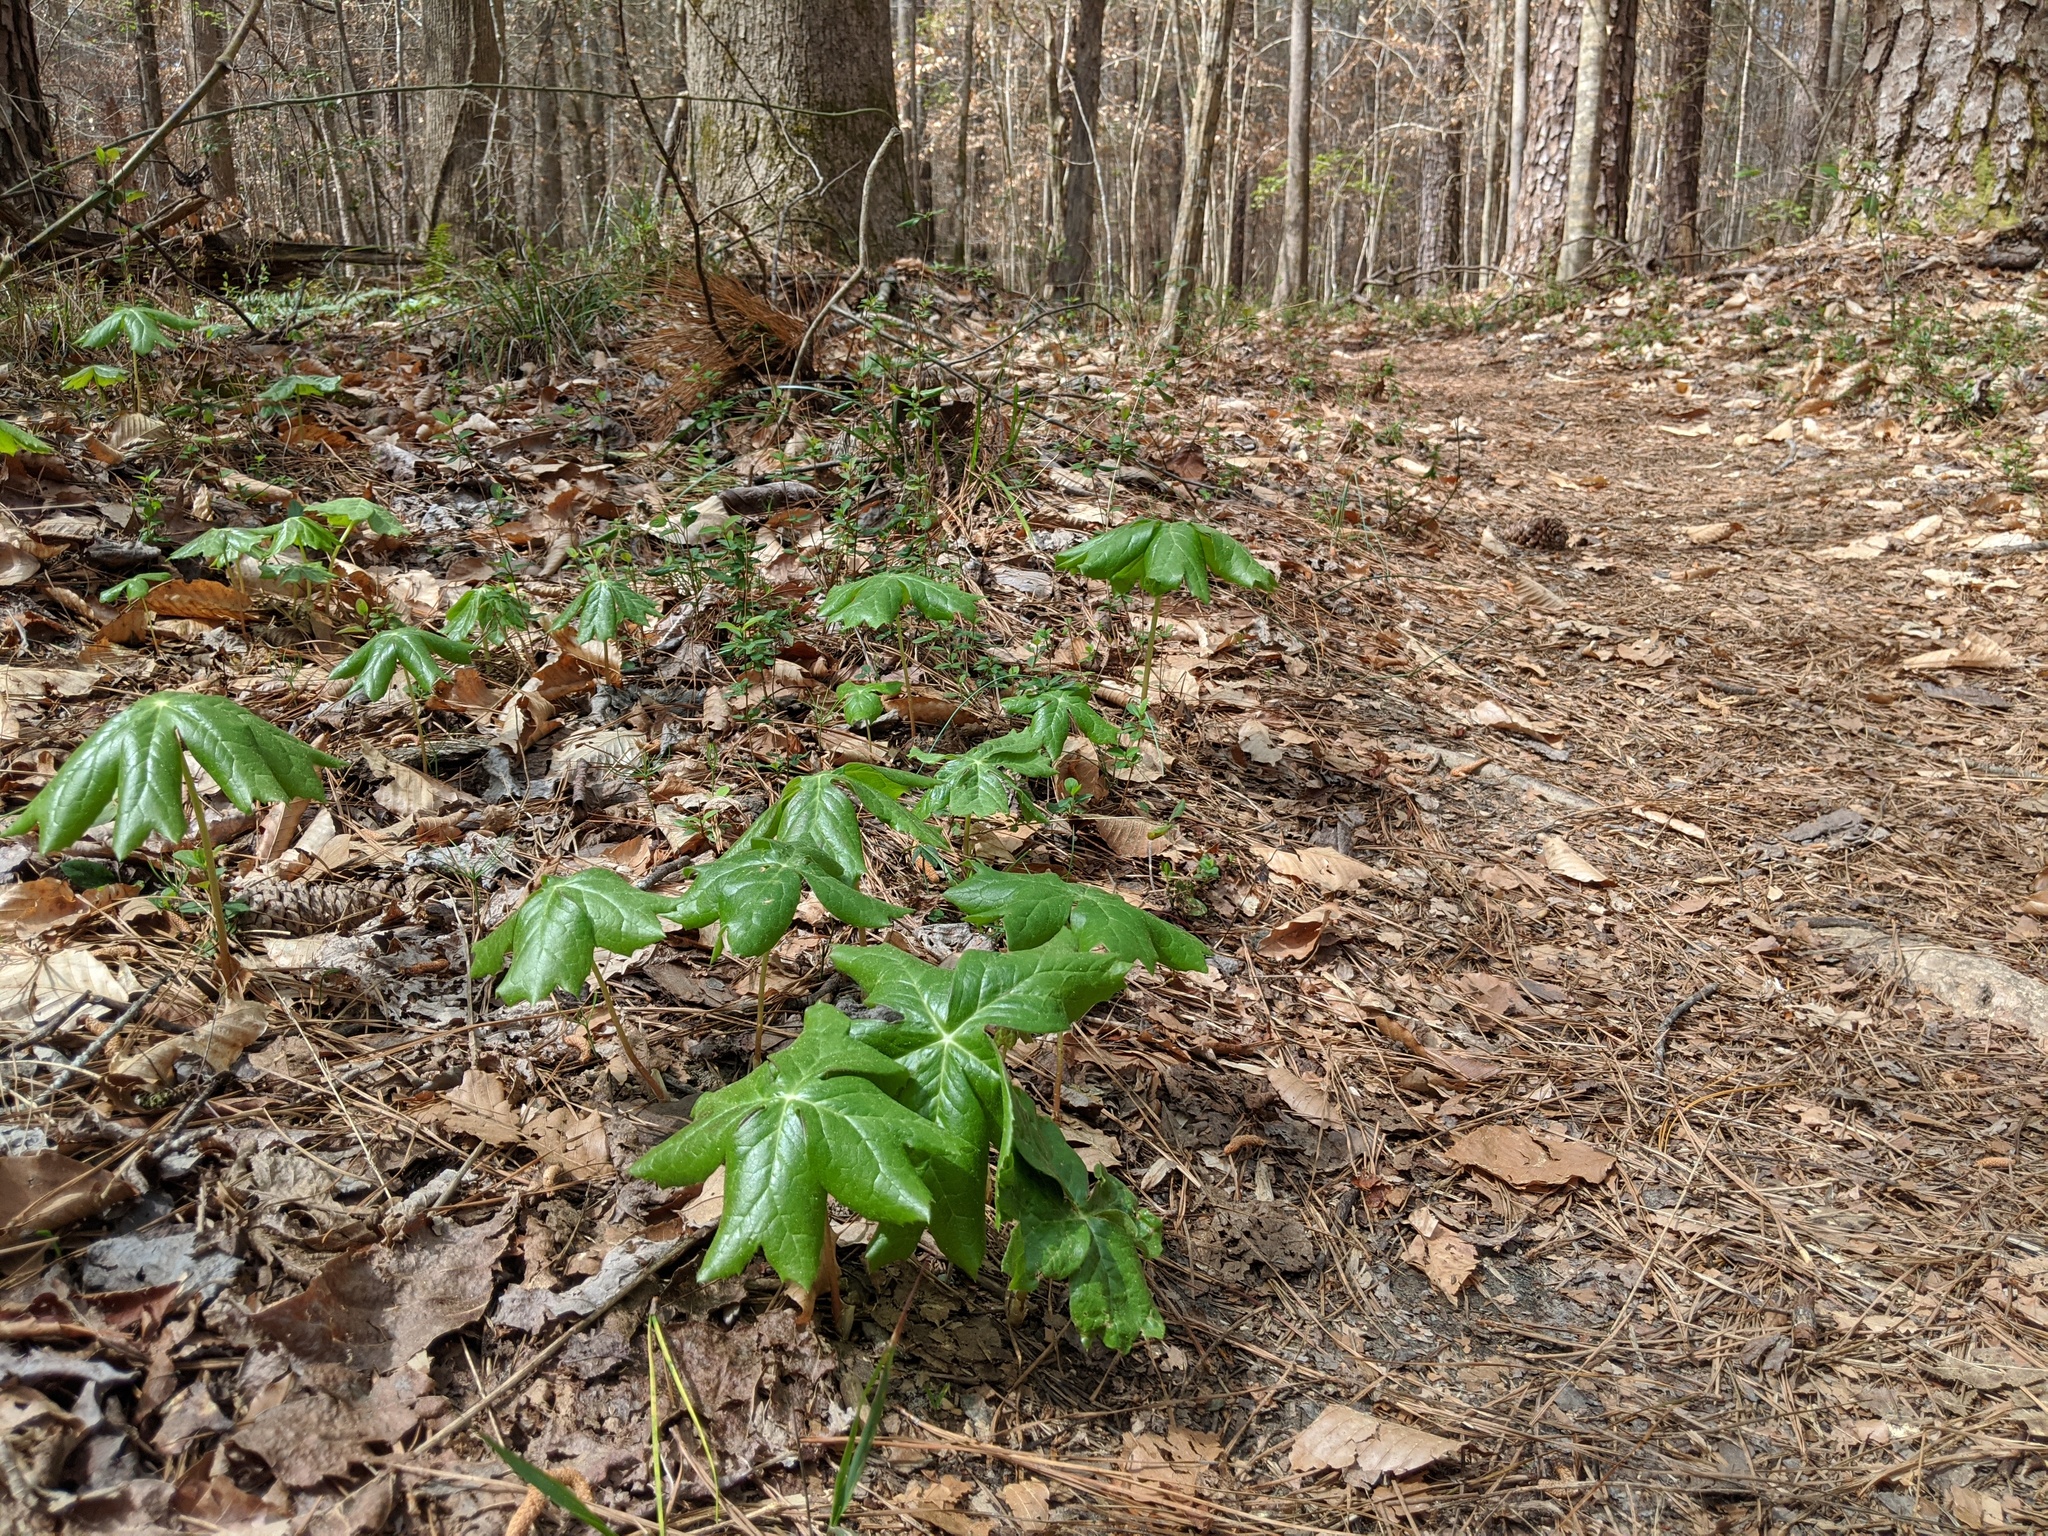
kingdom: Plantae
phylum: Tracheophyta
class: Magnoliopsida
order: Ranunculales
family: Berberidaceae
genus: Podophyllum
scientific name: Podophyllum peltatum
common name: Wild mandrake
